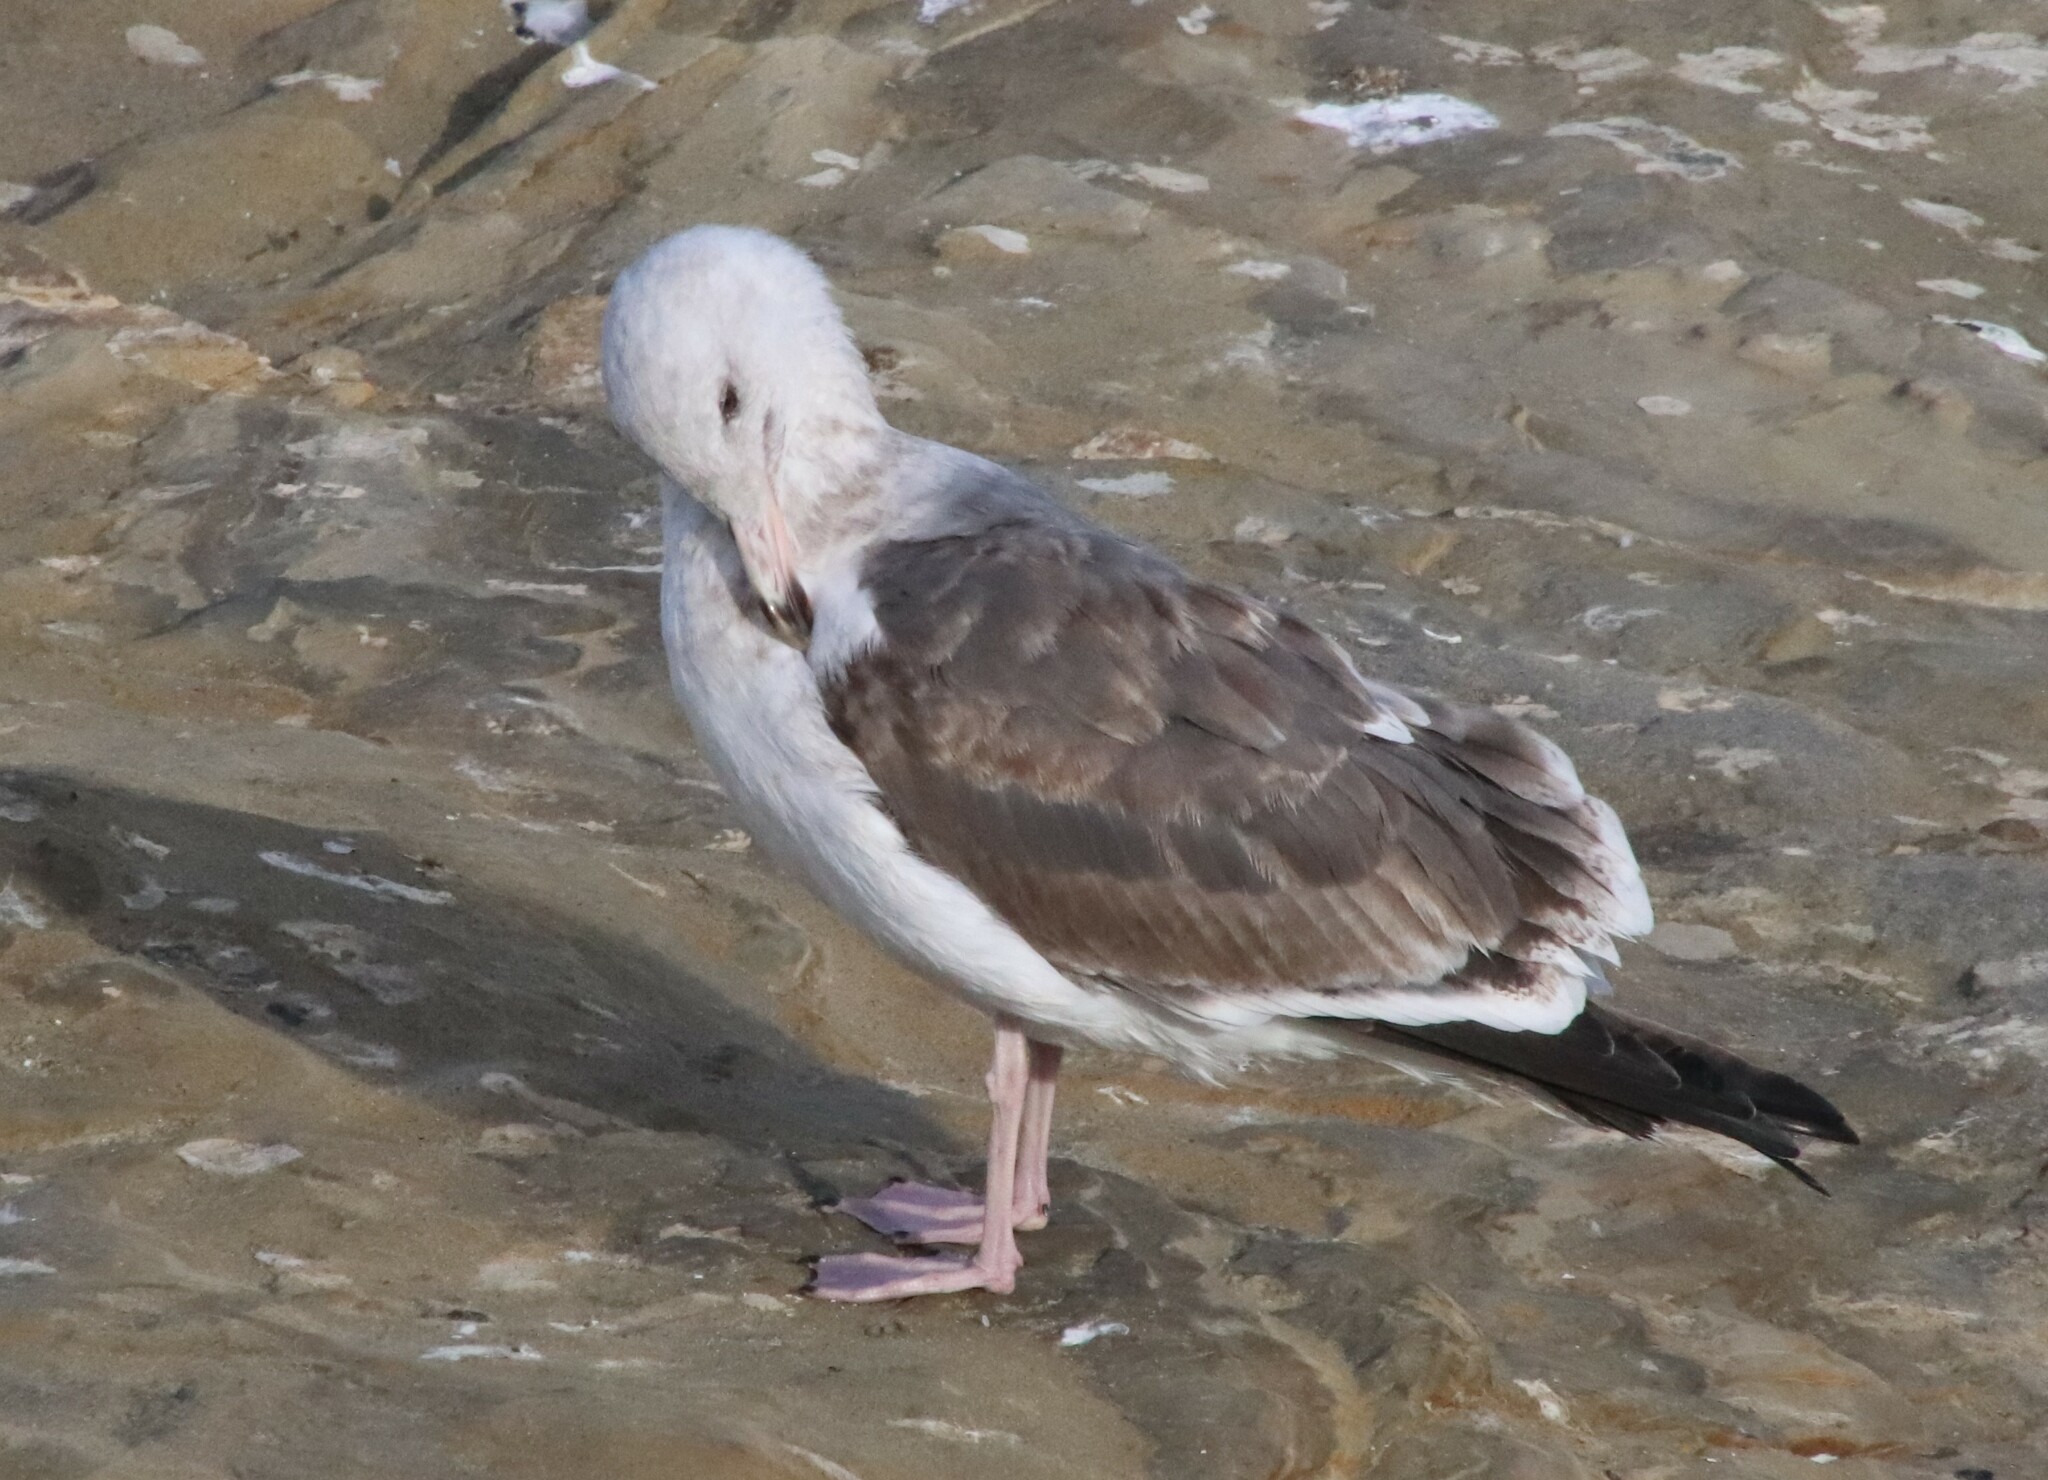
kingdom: Animalia
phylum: Chordata
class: Aves
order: Charadriiformes
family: Laridae
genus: Larus
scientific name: Larus occidentalis
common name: Western gull
